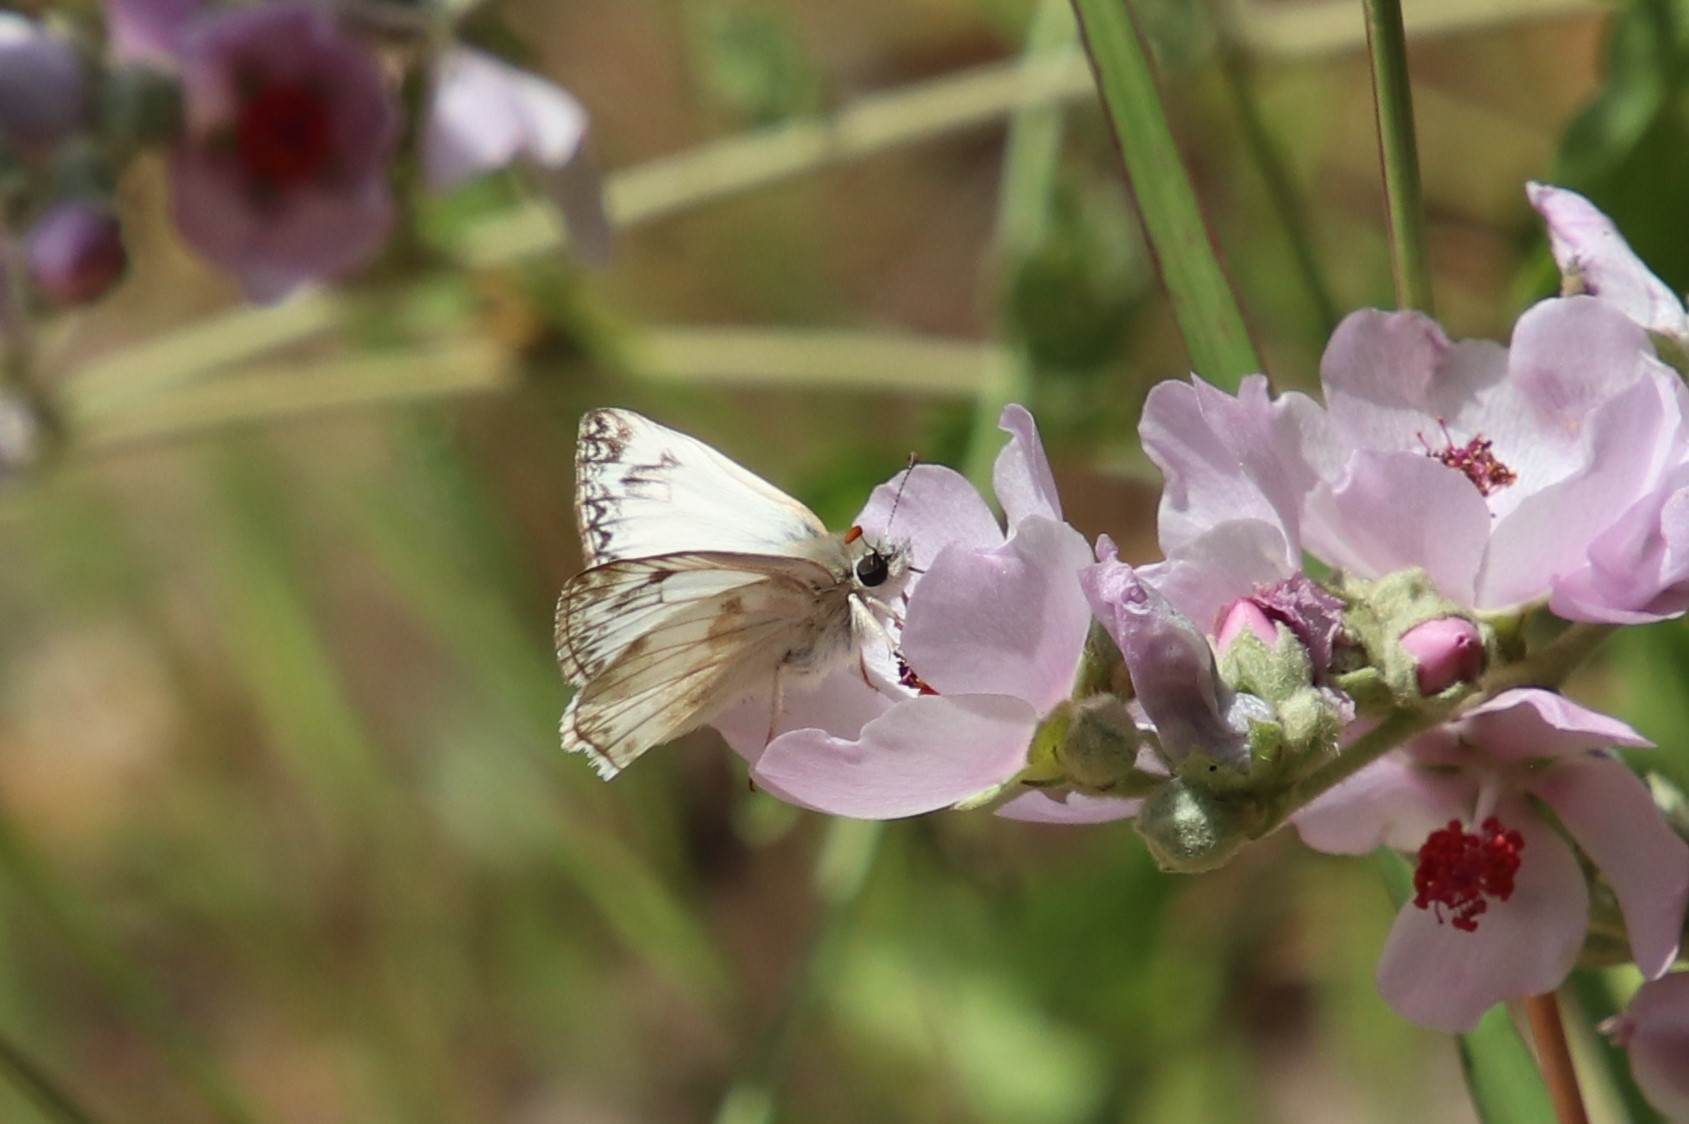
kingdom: Animalia
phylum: Arthropoda
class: Insecta
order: Lepidoptera
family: Hesperiidae
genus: Heliopetes
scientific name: Heliopetes ericetorum
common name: Northern white-skipper
